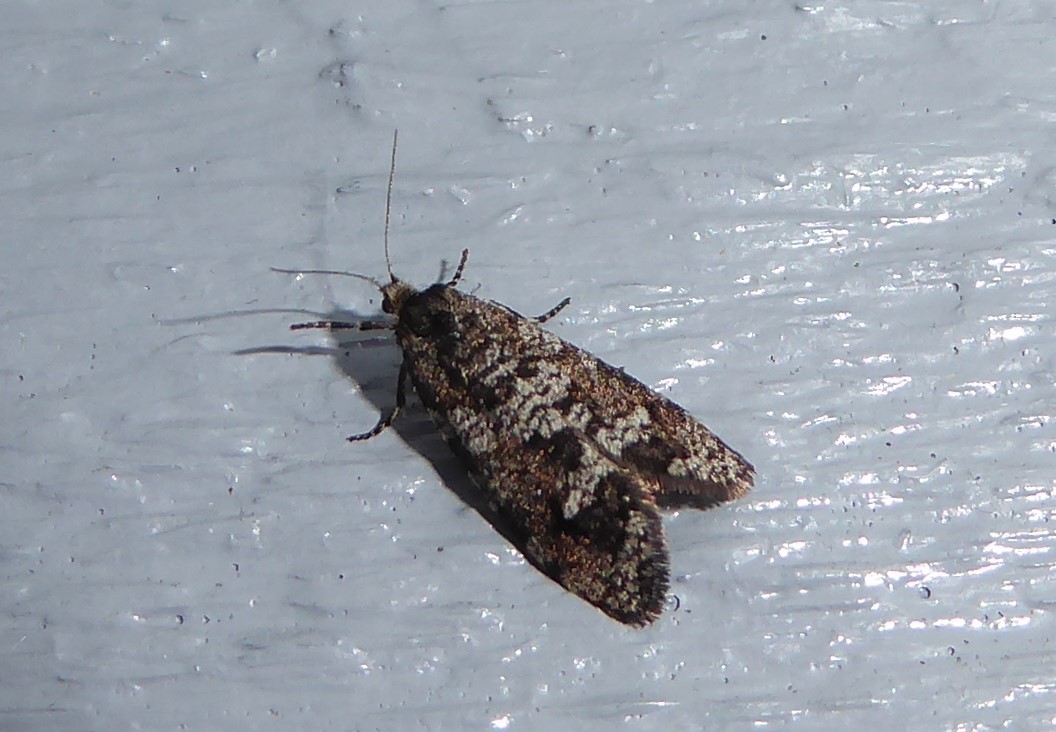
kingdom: Animalia
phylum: Arthropoda
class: Insecta
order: Lepidoptera
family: Psychidae
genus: Lepidoscia
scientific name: Lepidoscia heliochares
